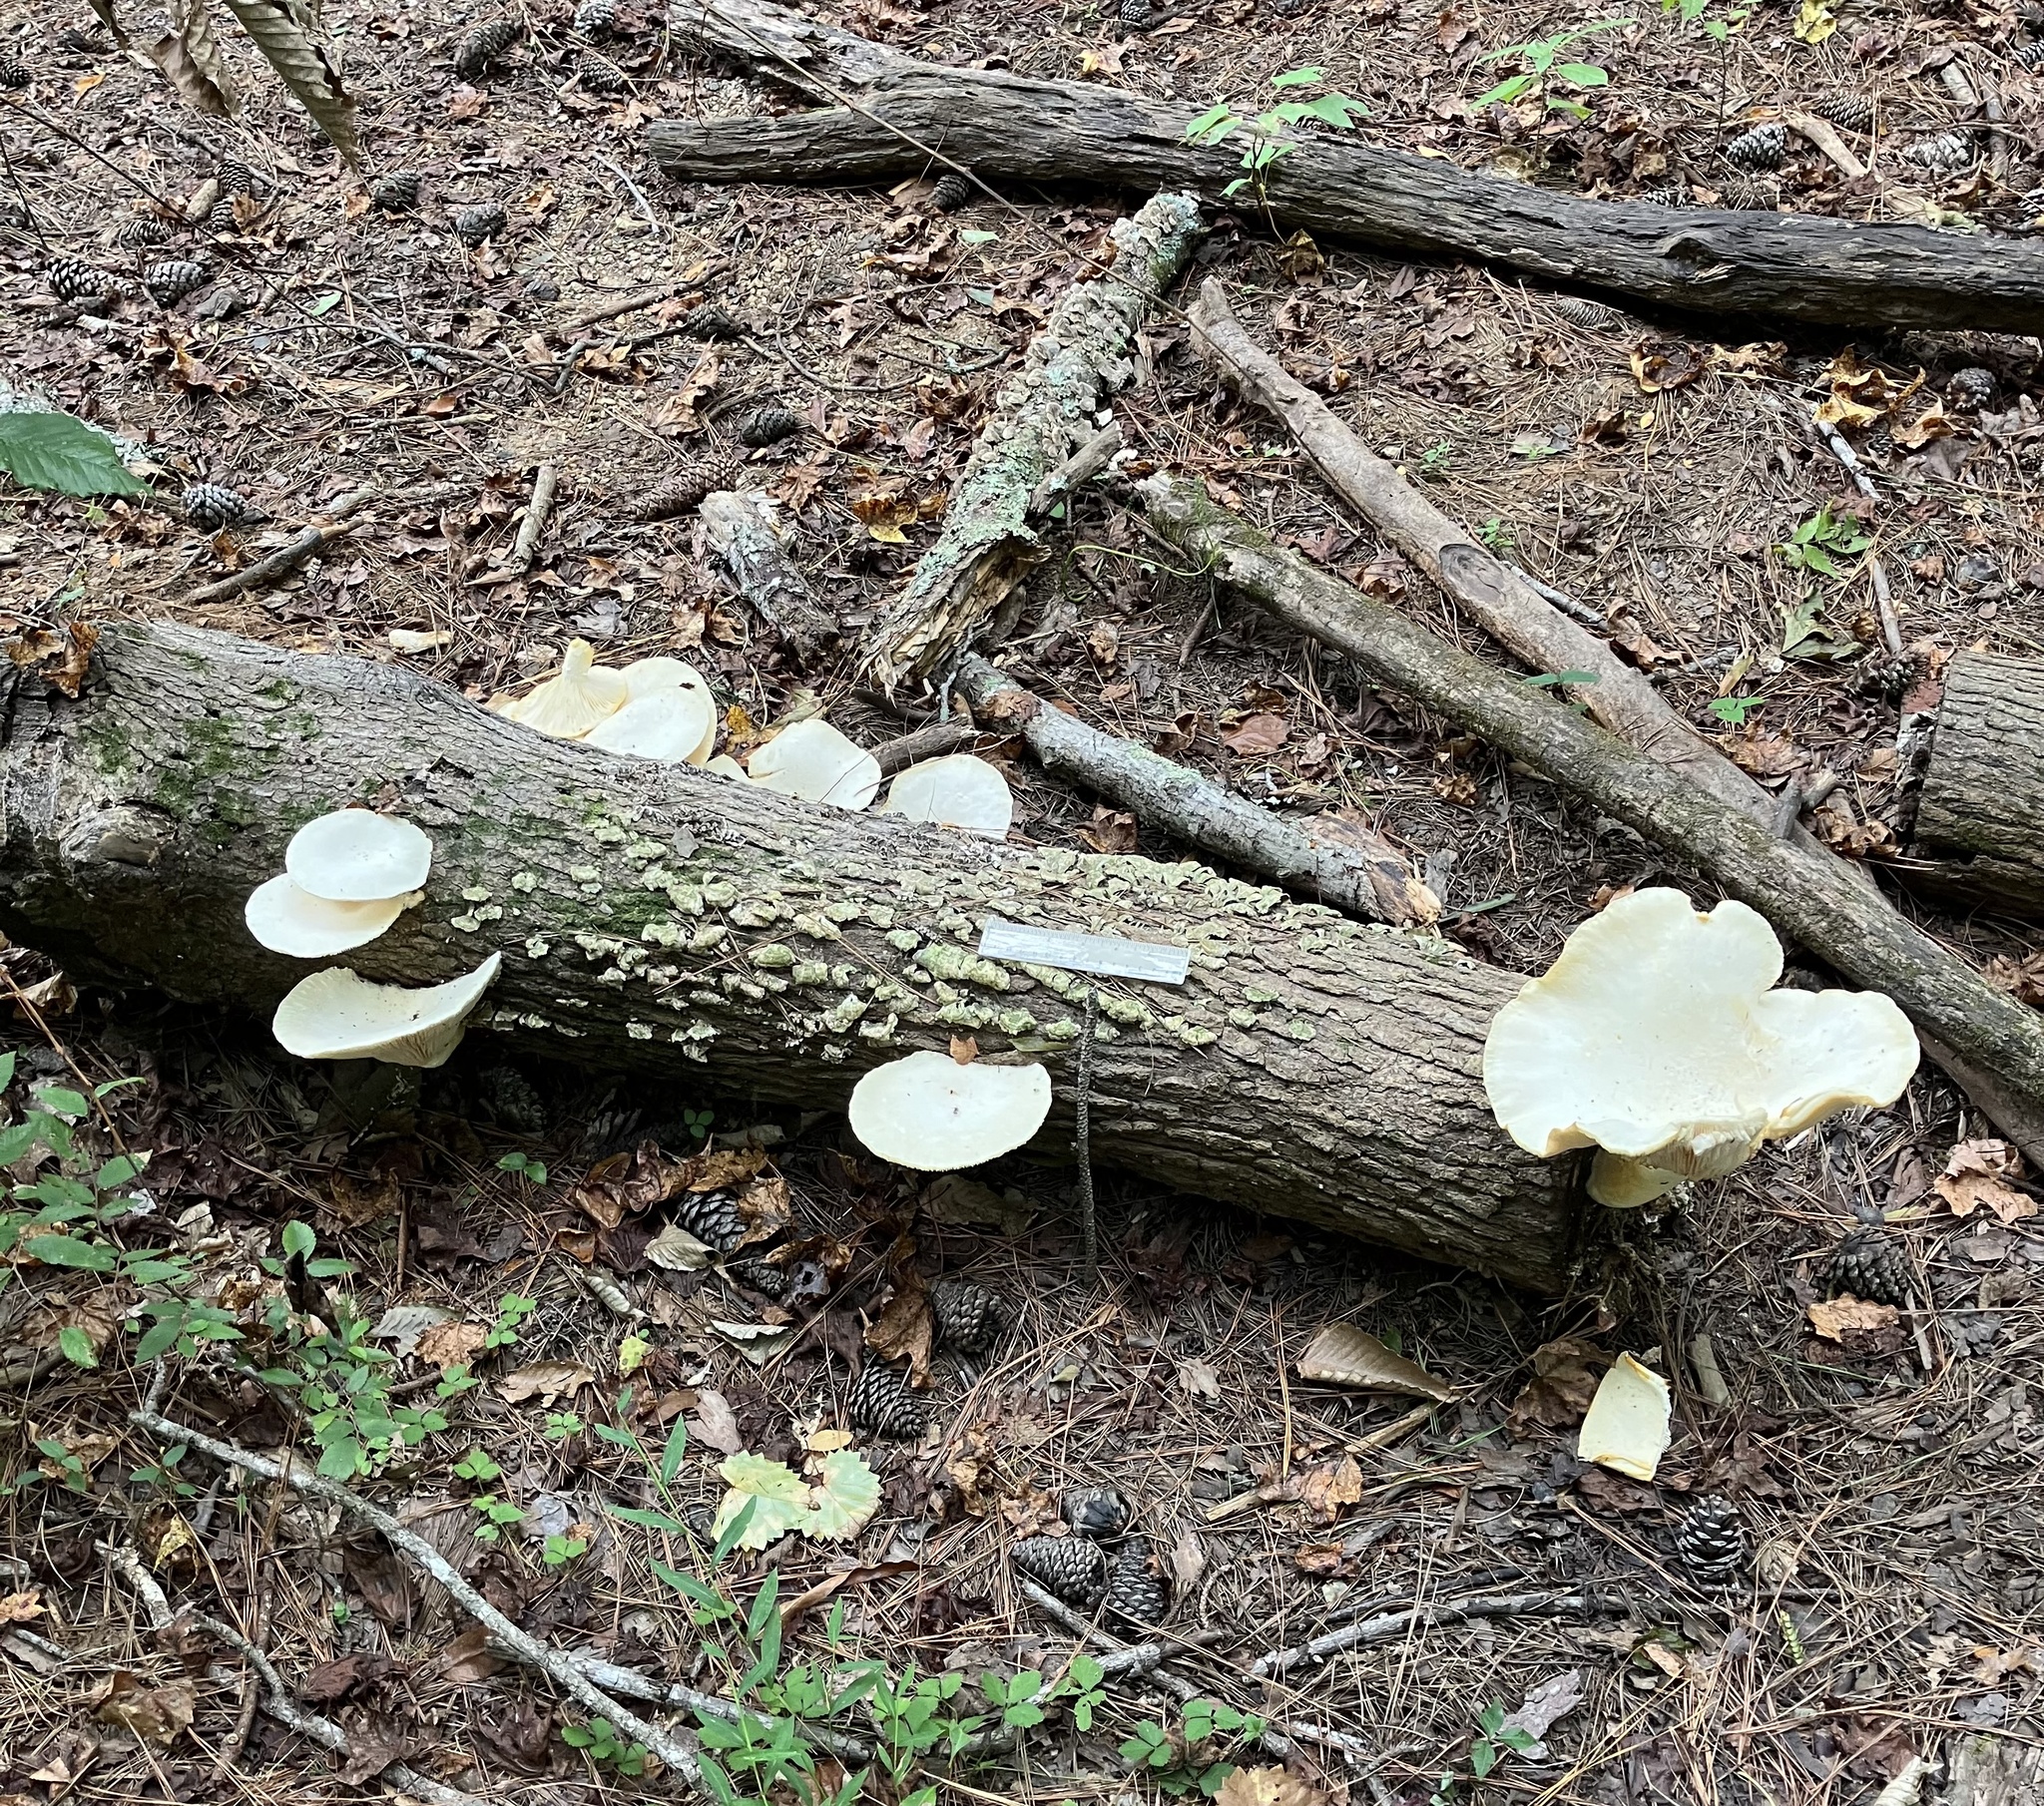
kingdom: Fungi
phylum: Basidiomycota
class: Agaricomycetes
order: Polyporales
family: Polyporaceae
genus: Lentinus
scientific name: Lentinus levis
